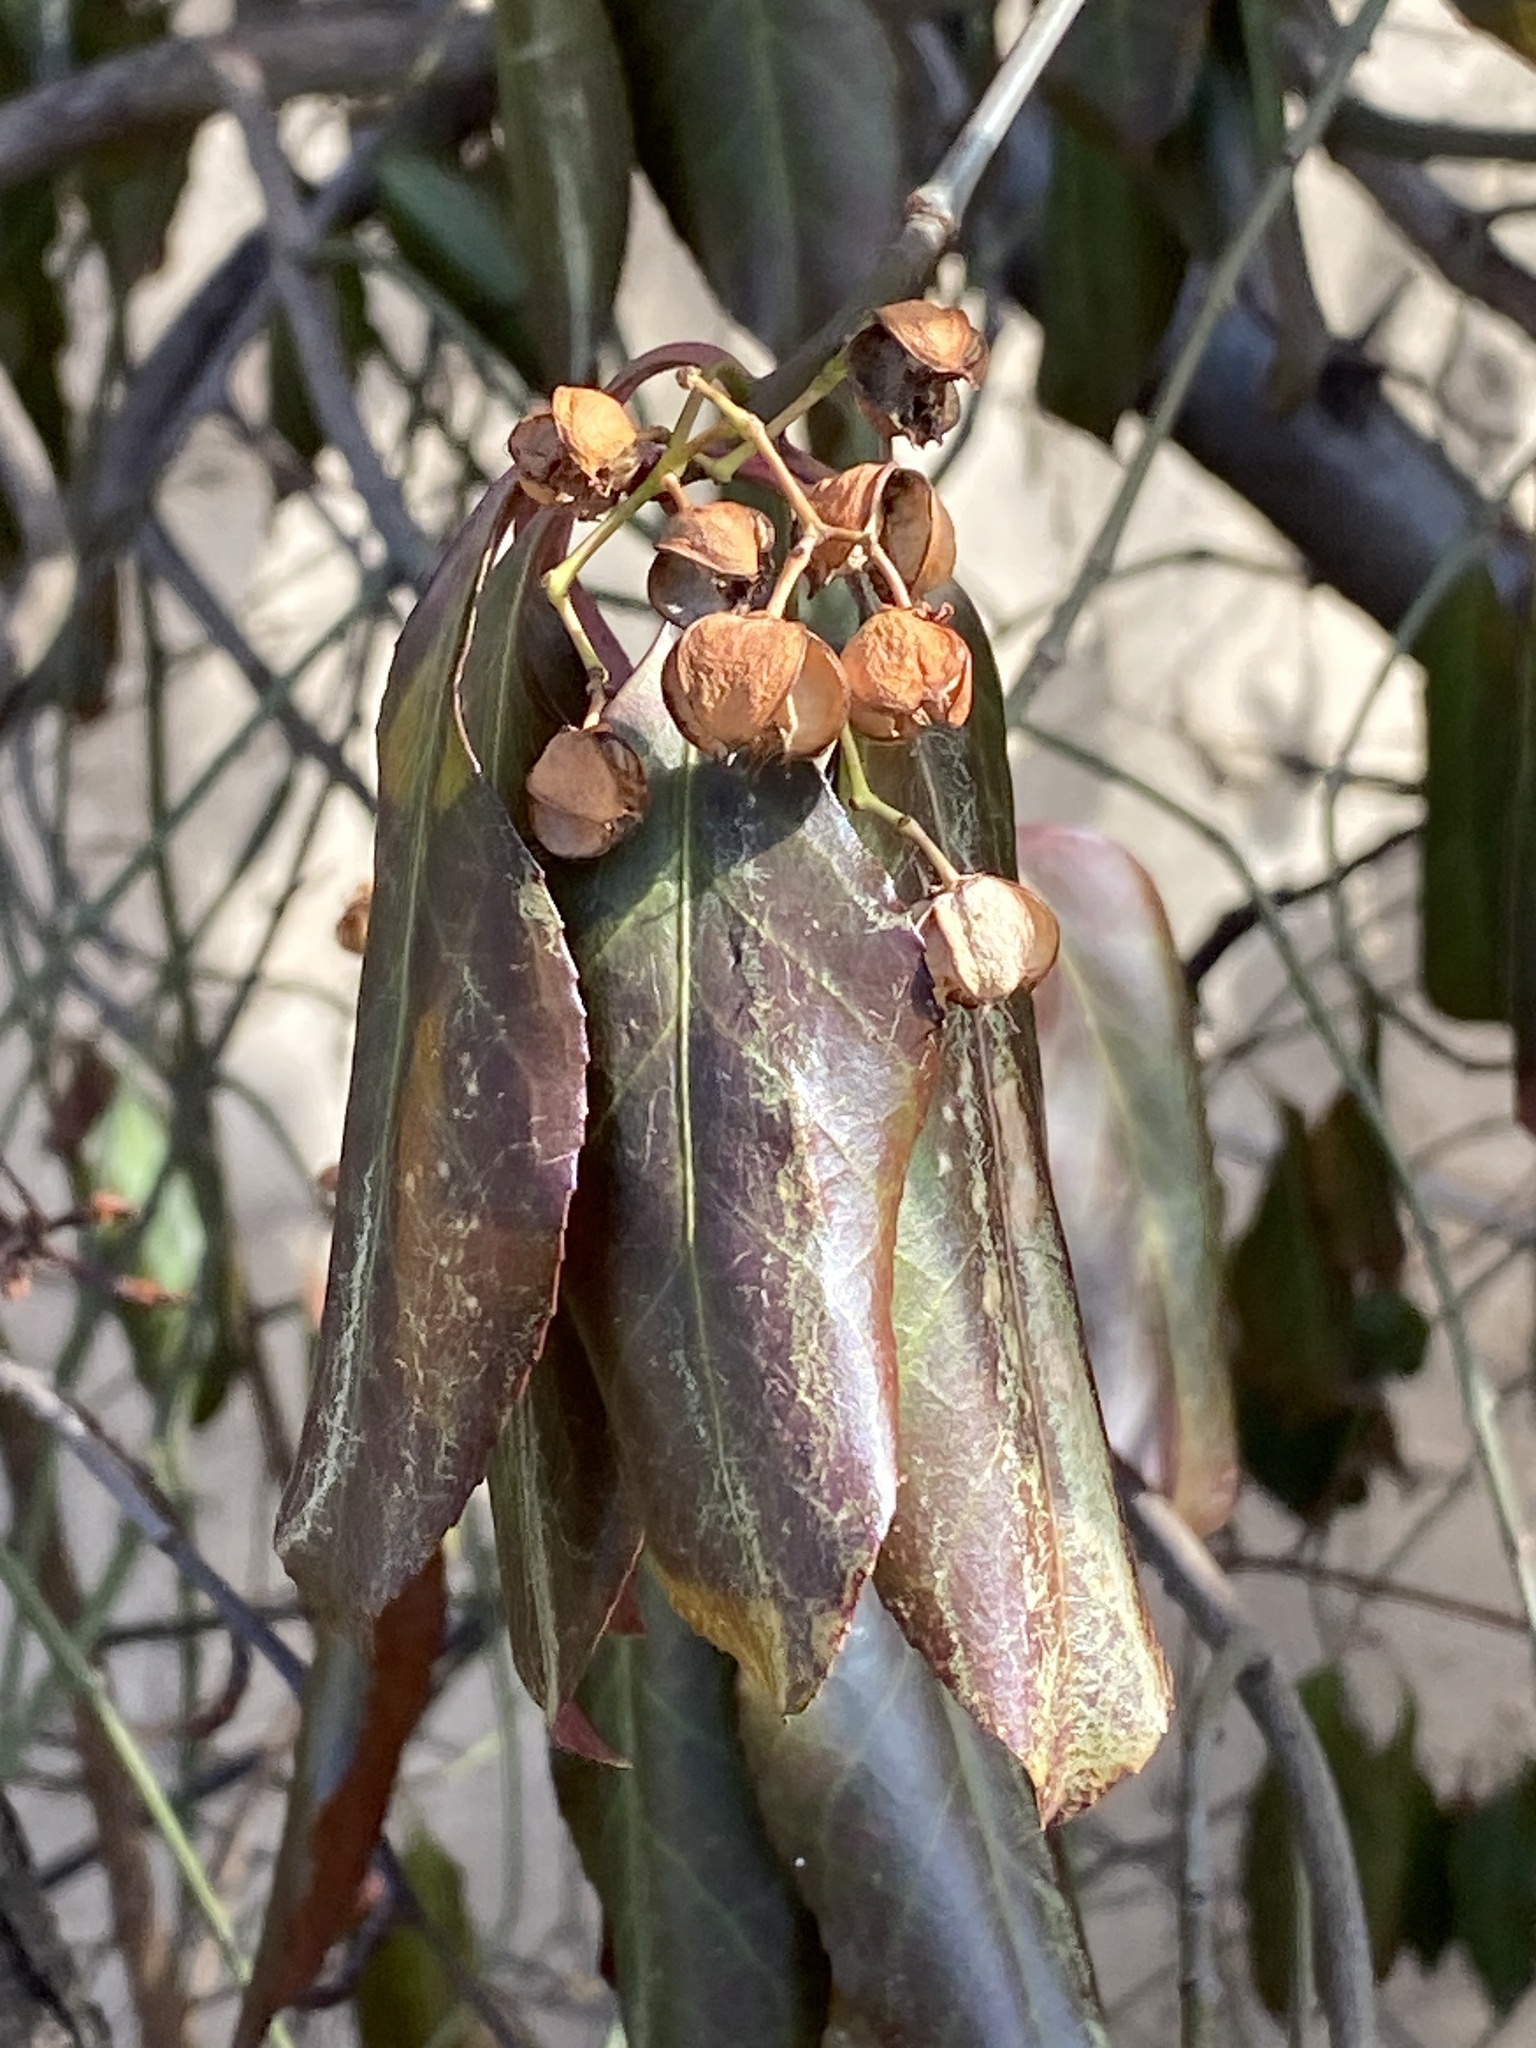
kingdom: Plantae
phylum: Tracheophyta
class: Magnoliopsida
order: Celastrales
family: Celastraceae
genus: Euonymus
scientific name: Euonymus fortunei
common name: Climbing euonymus
